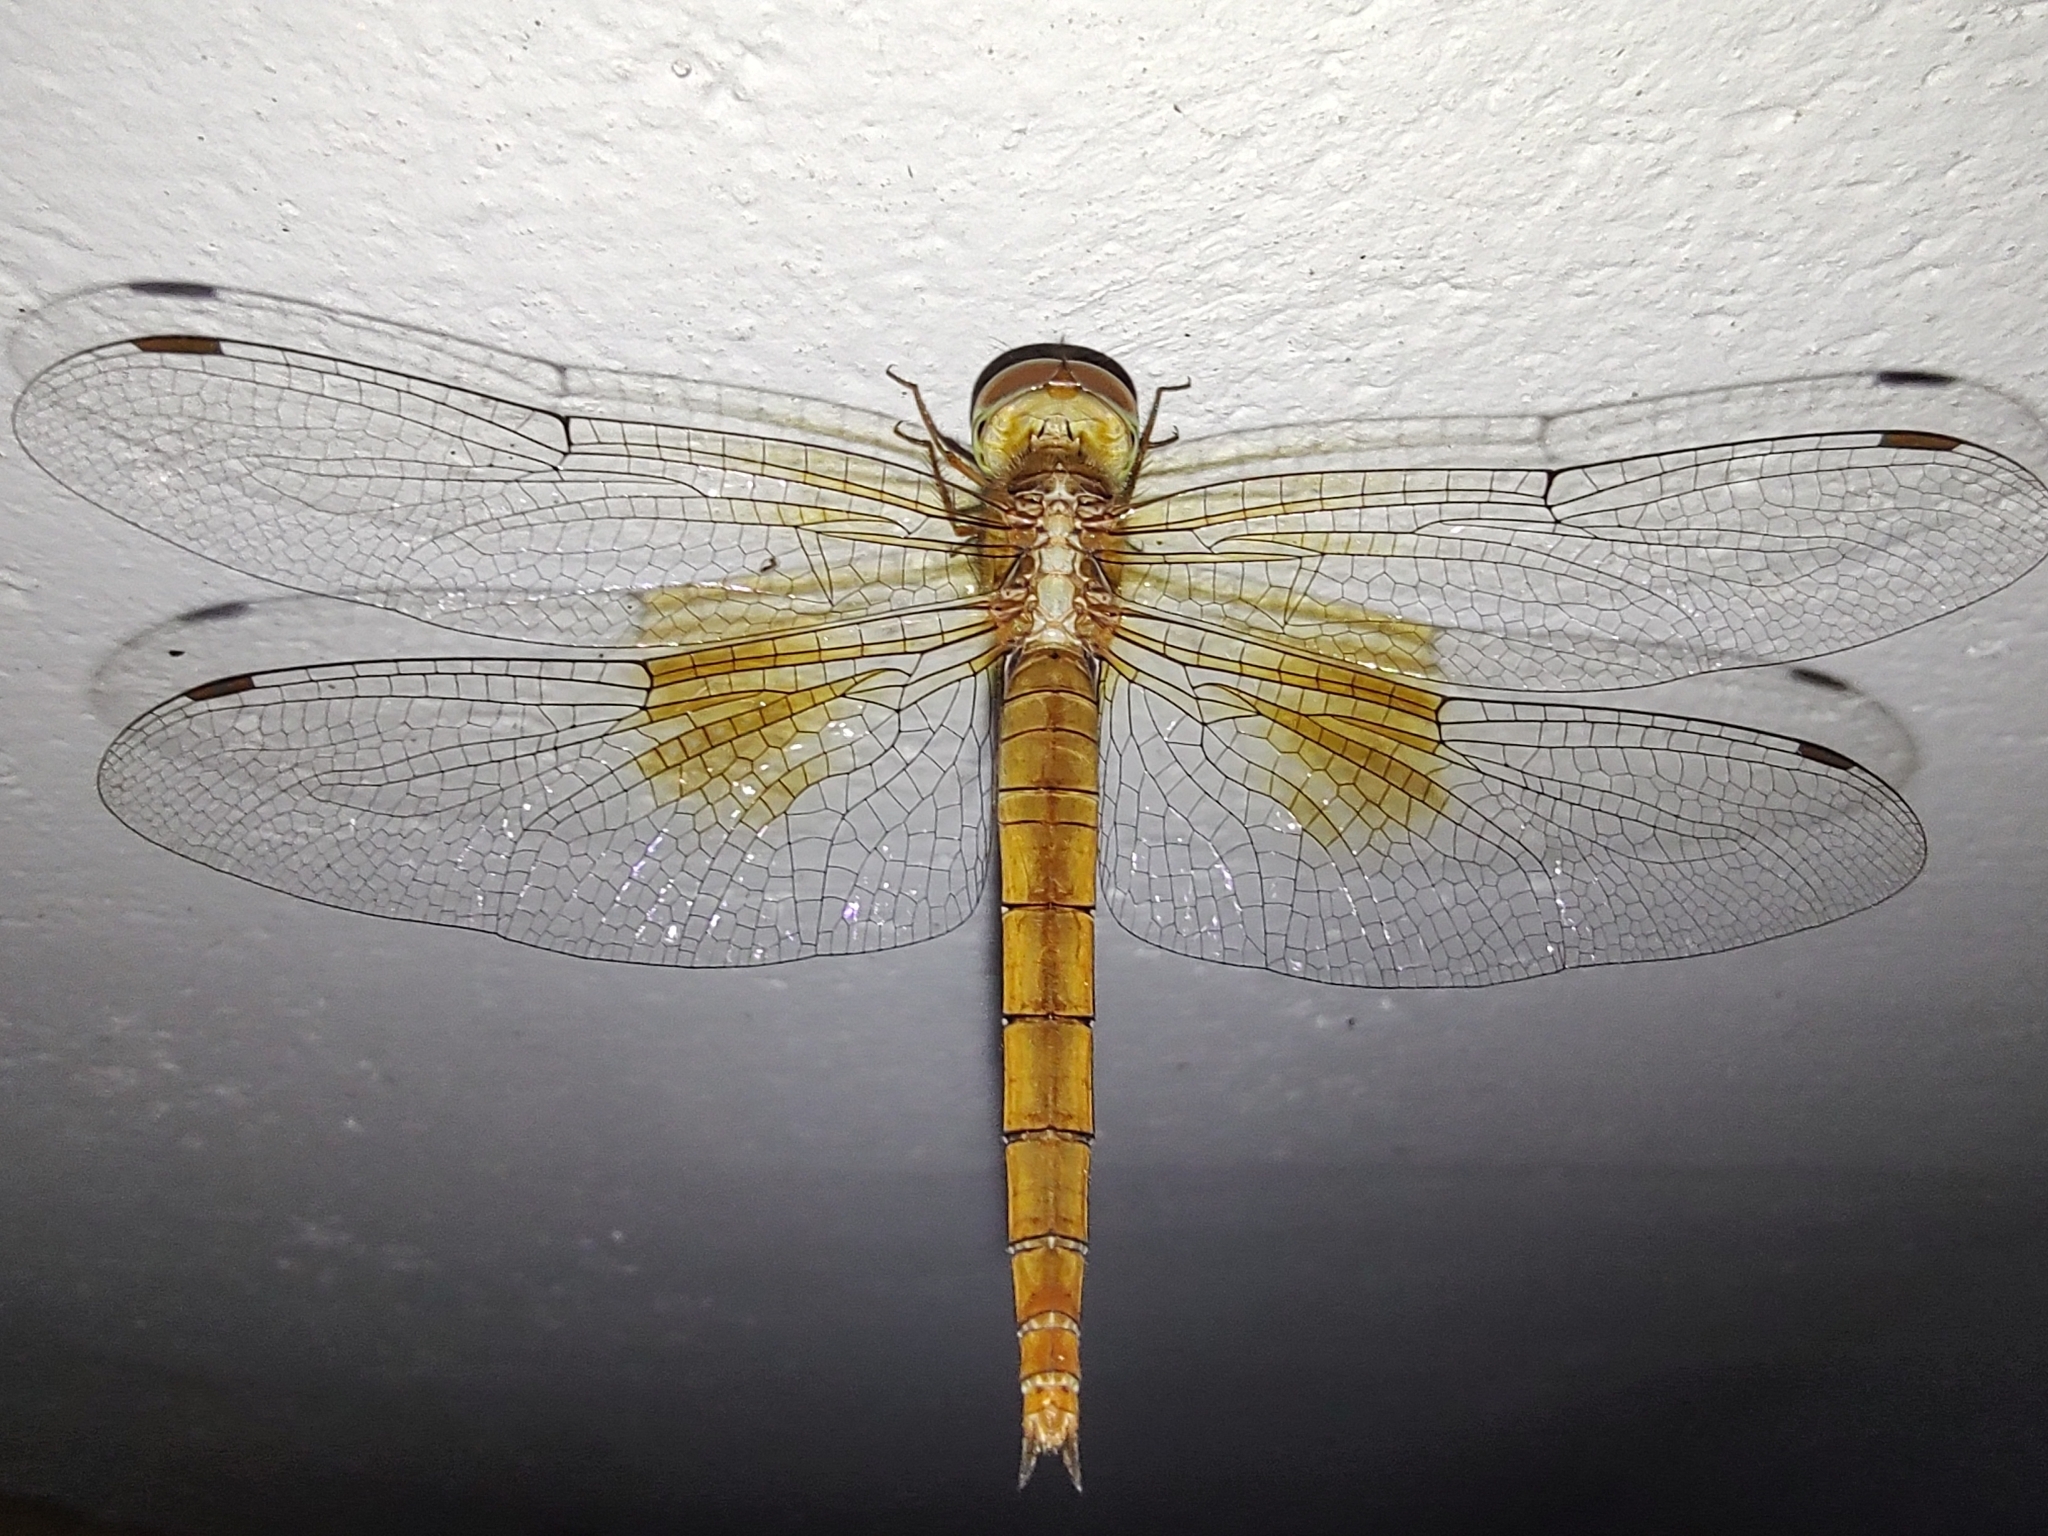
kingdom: Animalia
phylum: Arthropoda
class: Insecta
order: Odonata
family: Libellulidae
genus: Tholymis
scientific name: Tholymis tillarga
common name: Coral-tailed cloud wing
